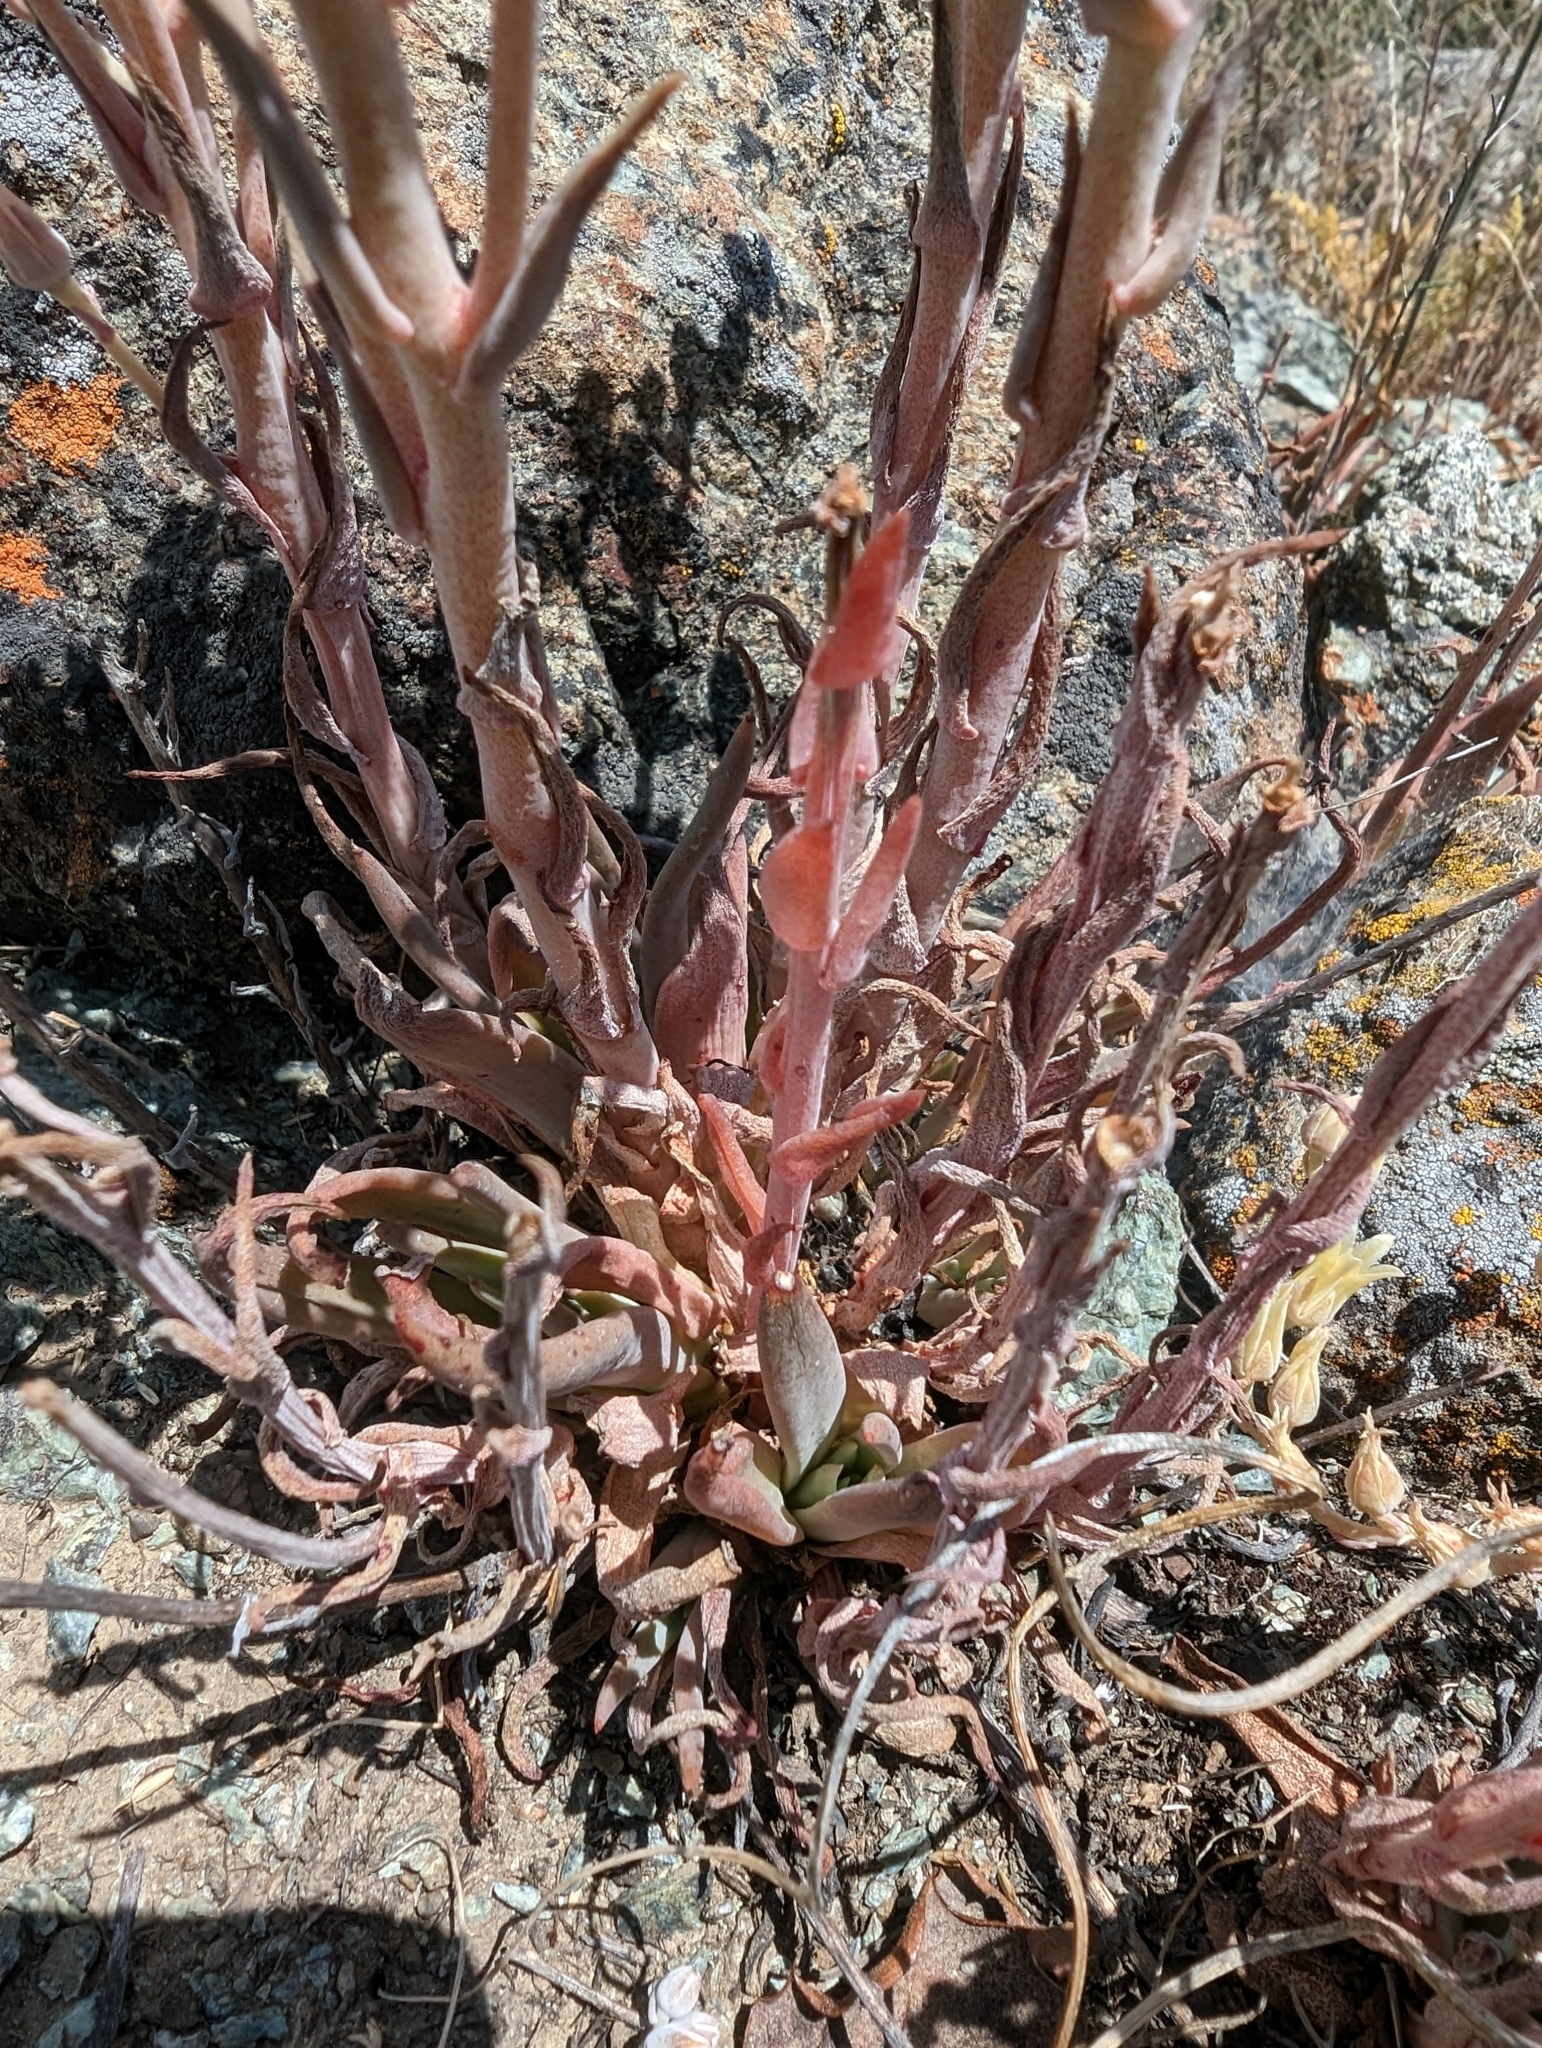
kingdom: Plantae
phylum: Tracheophyta
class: Magnoliopsida
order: Saxifragales
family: Crassulaceae
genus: Dudleya
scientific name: Dudleya abramsii
